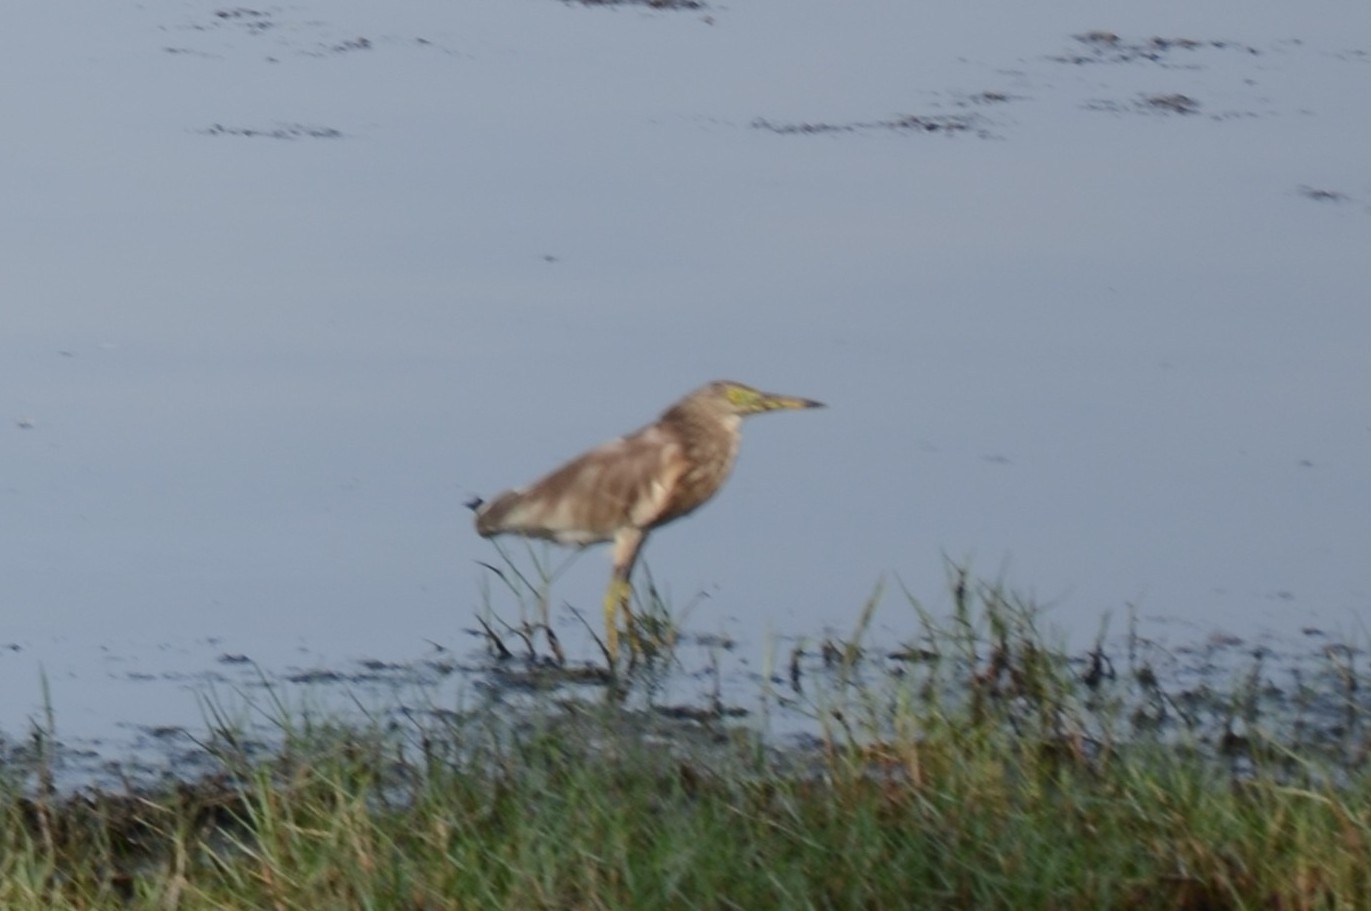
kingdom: Animalia
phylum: Chordata
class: Aves
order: Pelecaniformes
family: Ardeidae
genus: Ardeola
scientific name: Ardeola grayii
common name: Indian pond heron
